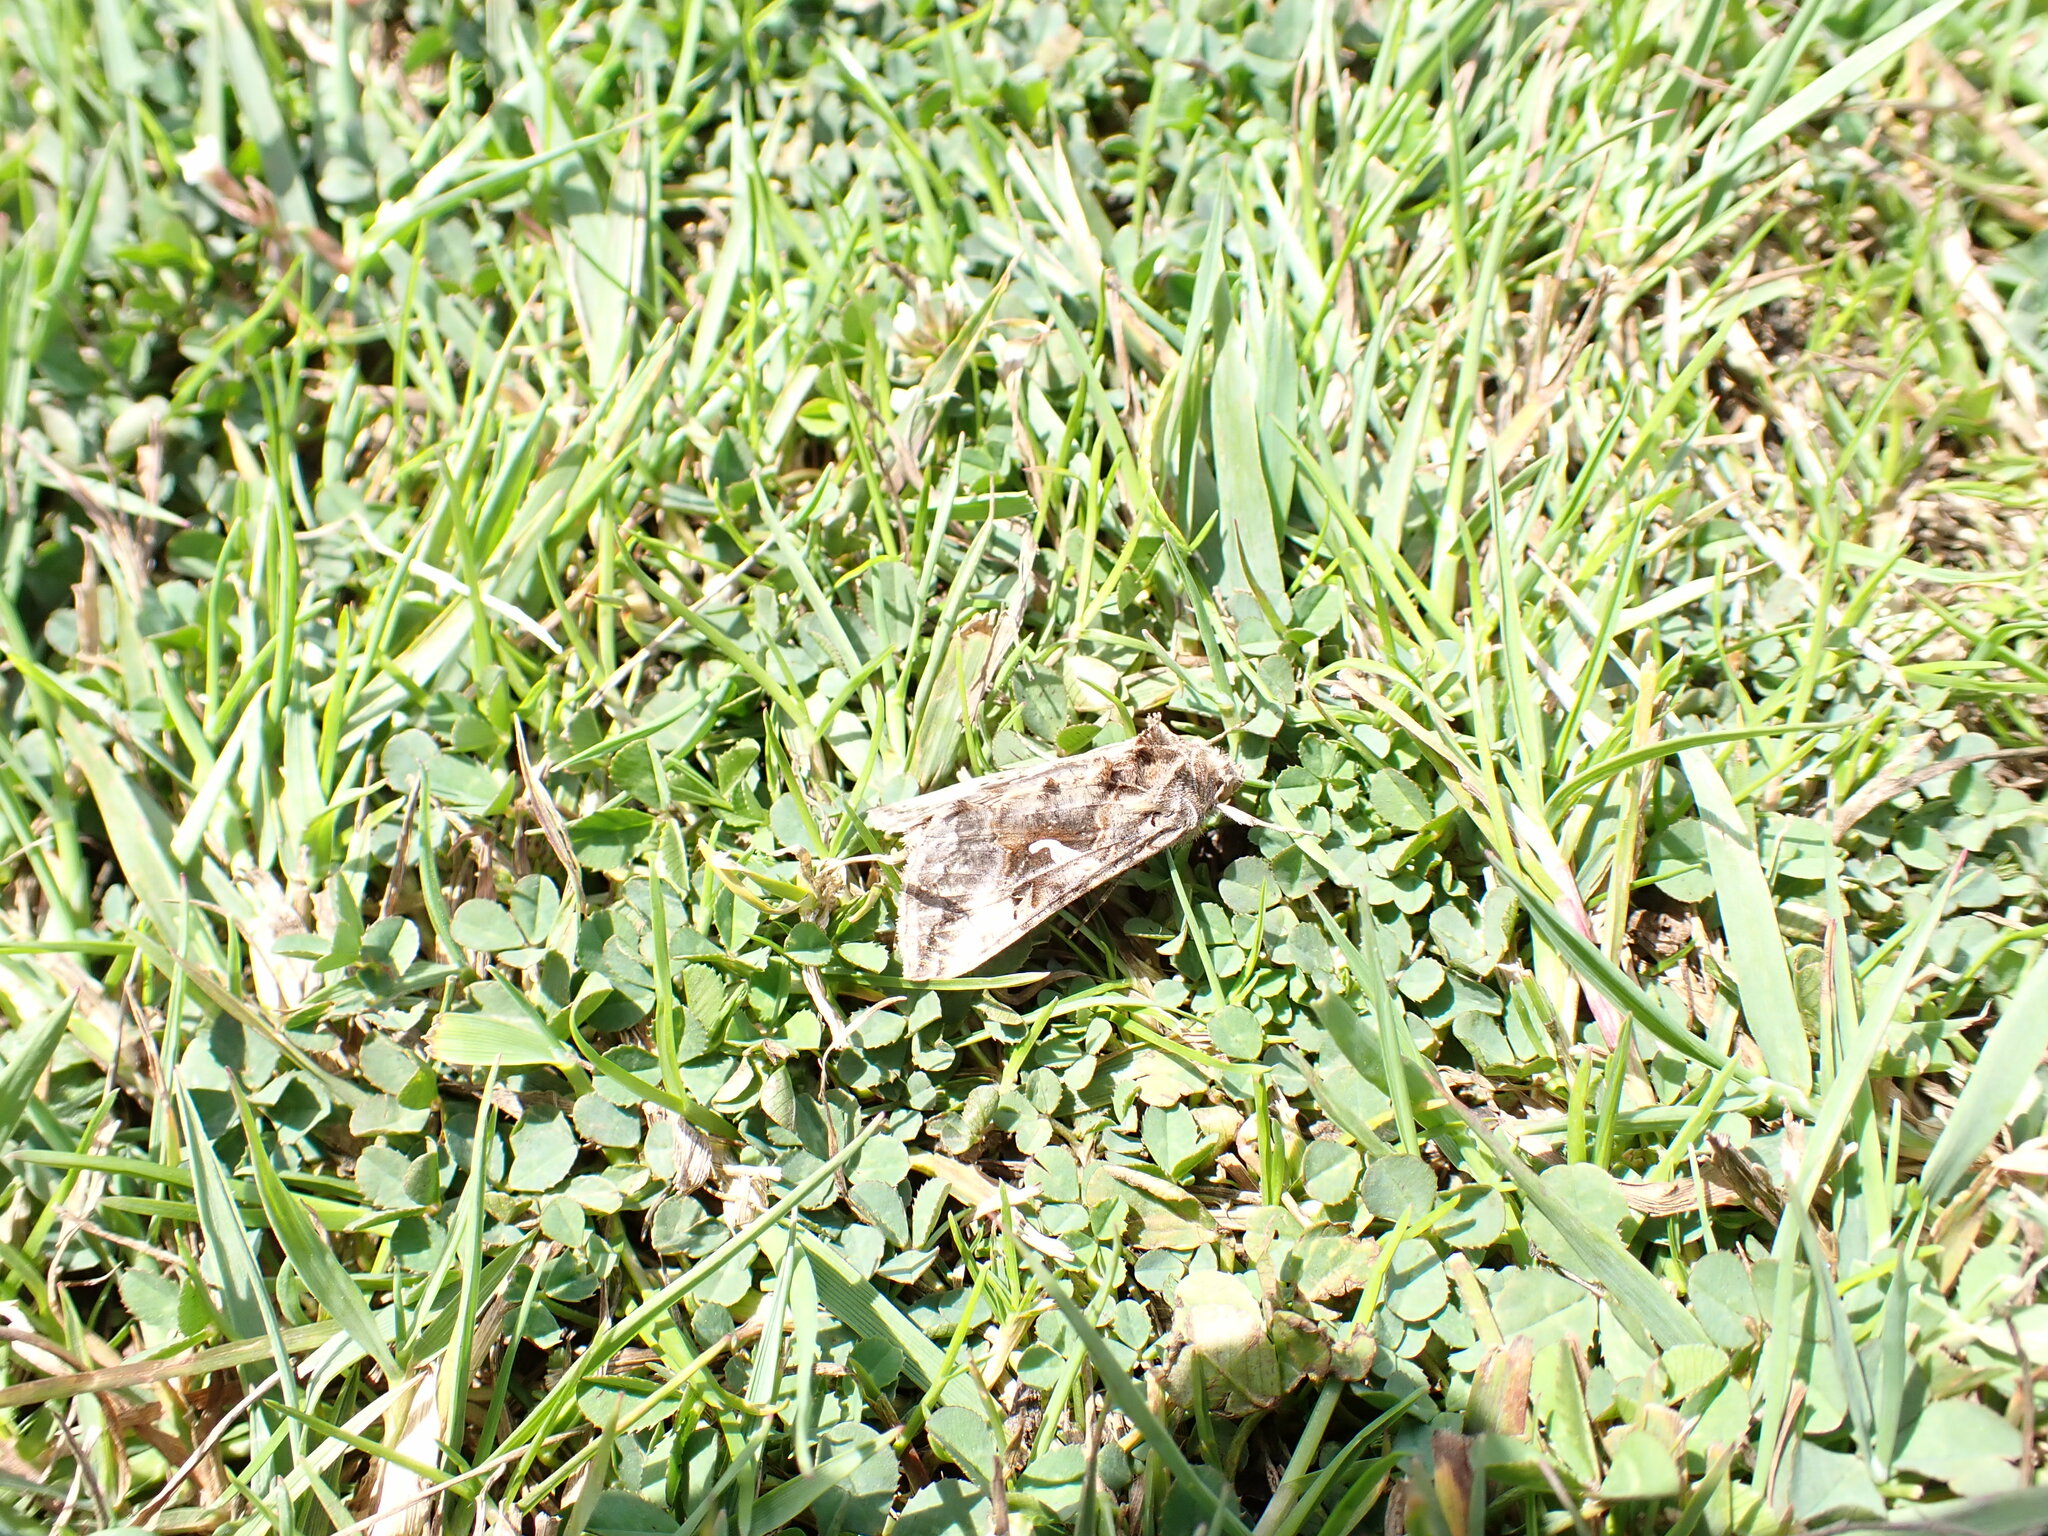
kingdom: Animalia
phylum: Arthropoda
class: Insecta
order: Lepidoptera
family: Noctuidae
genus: Autographa
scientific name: Autographa gamma
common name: Silver y
